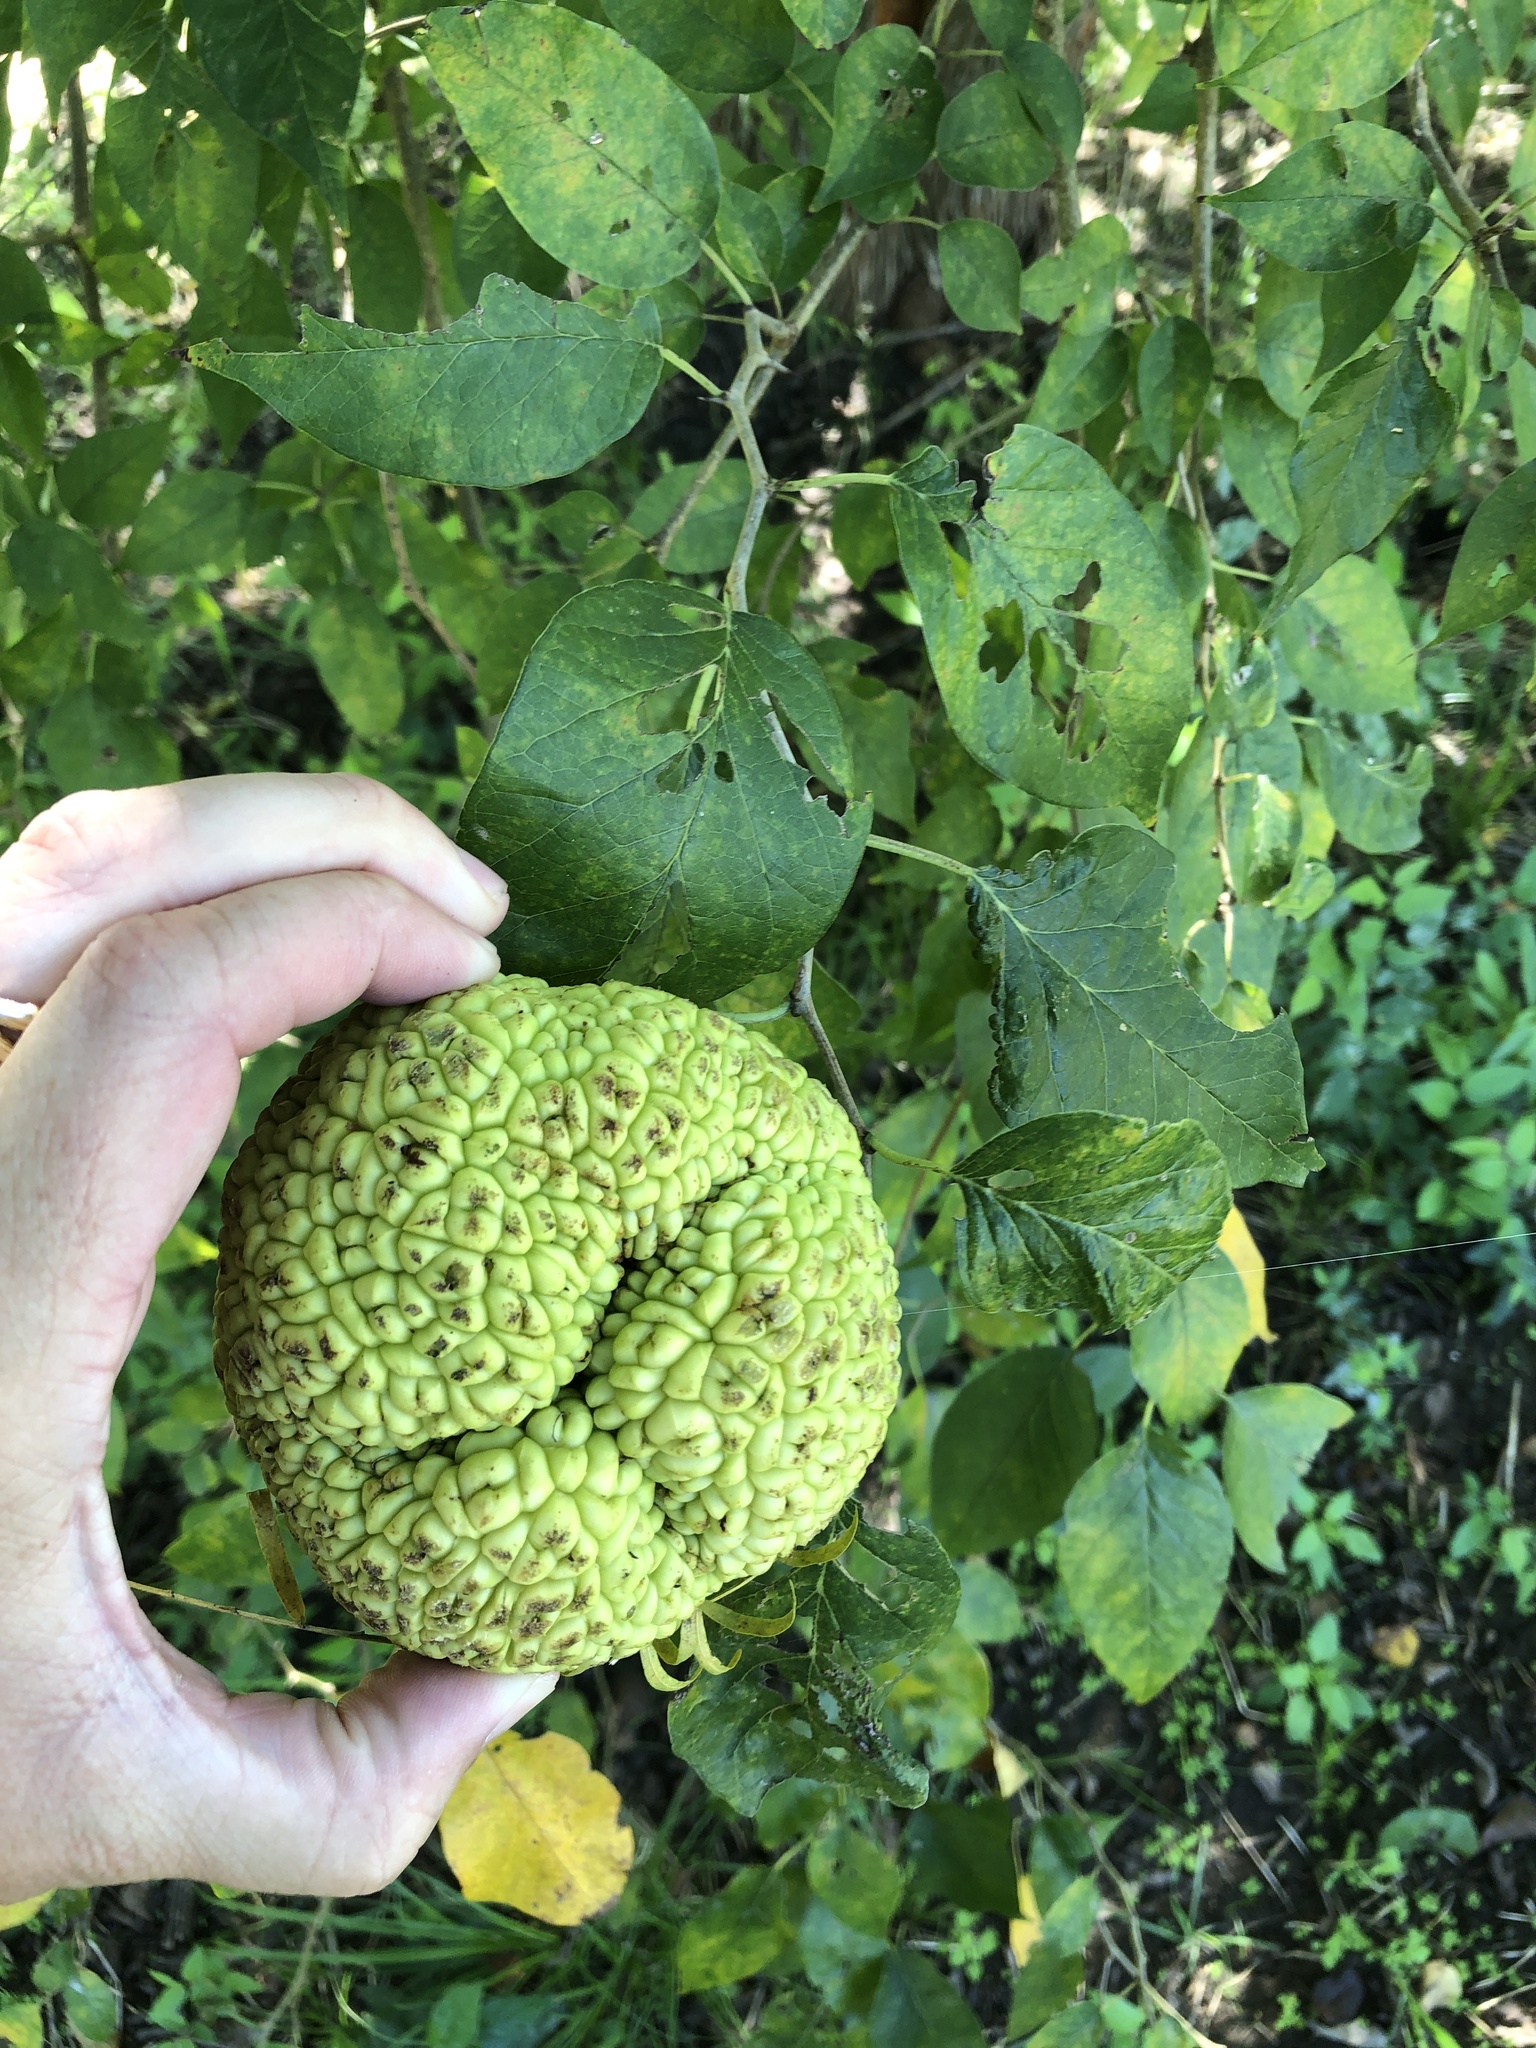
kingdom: Plantae
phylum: Tracheophyta
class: Magnoliopsida
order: Rosales
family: Moraceae
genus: Maclura
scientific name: Maclura pomifera
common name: Osage-orange
